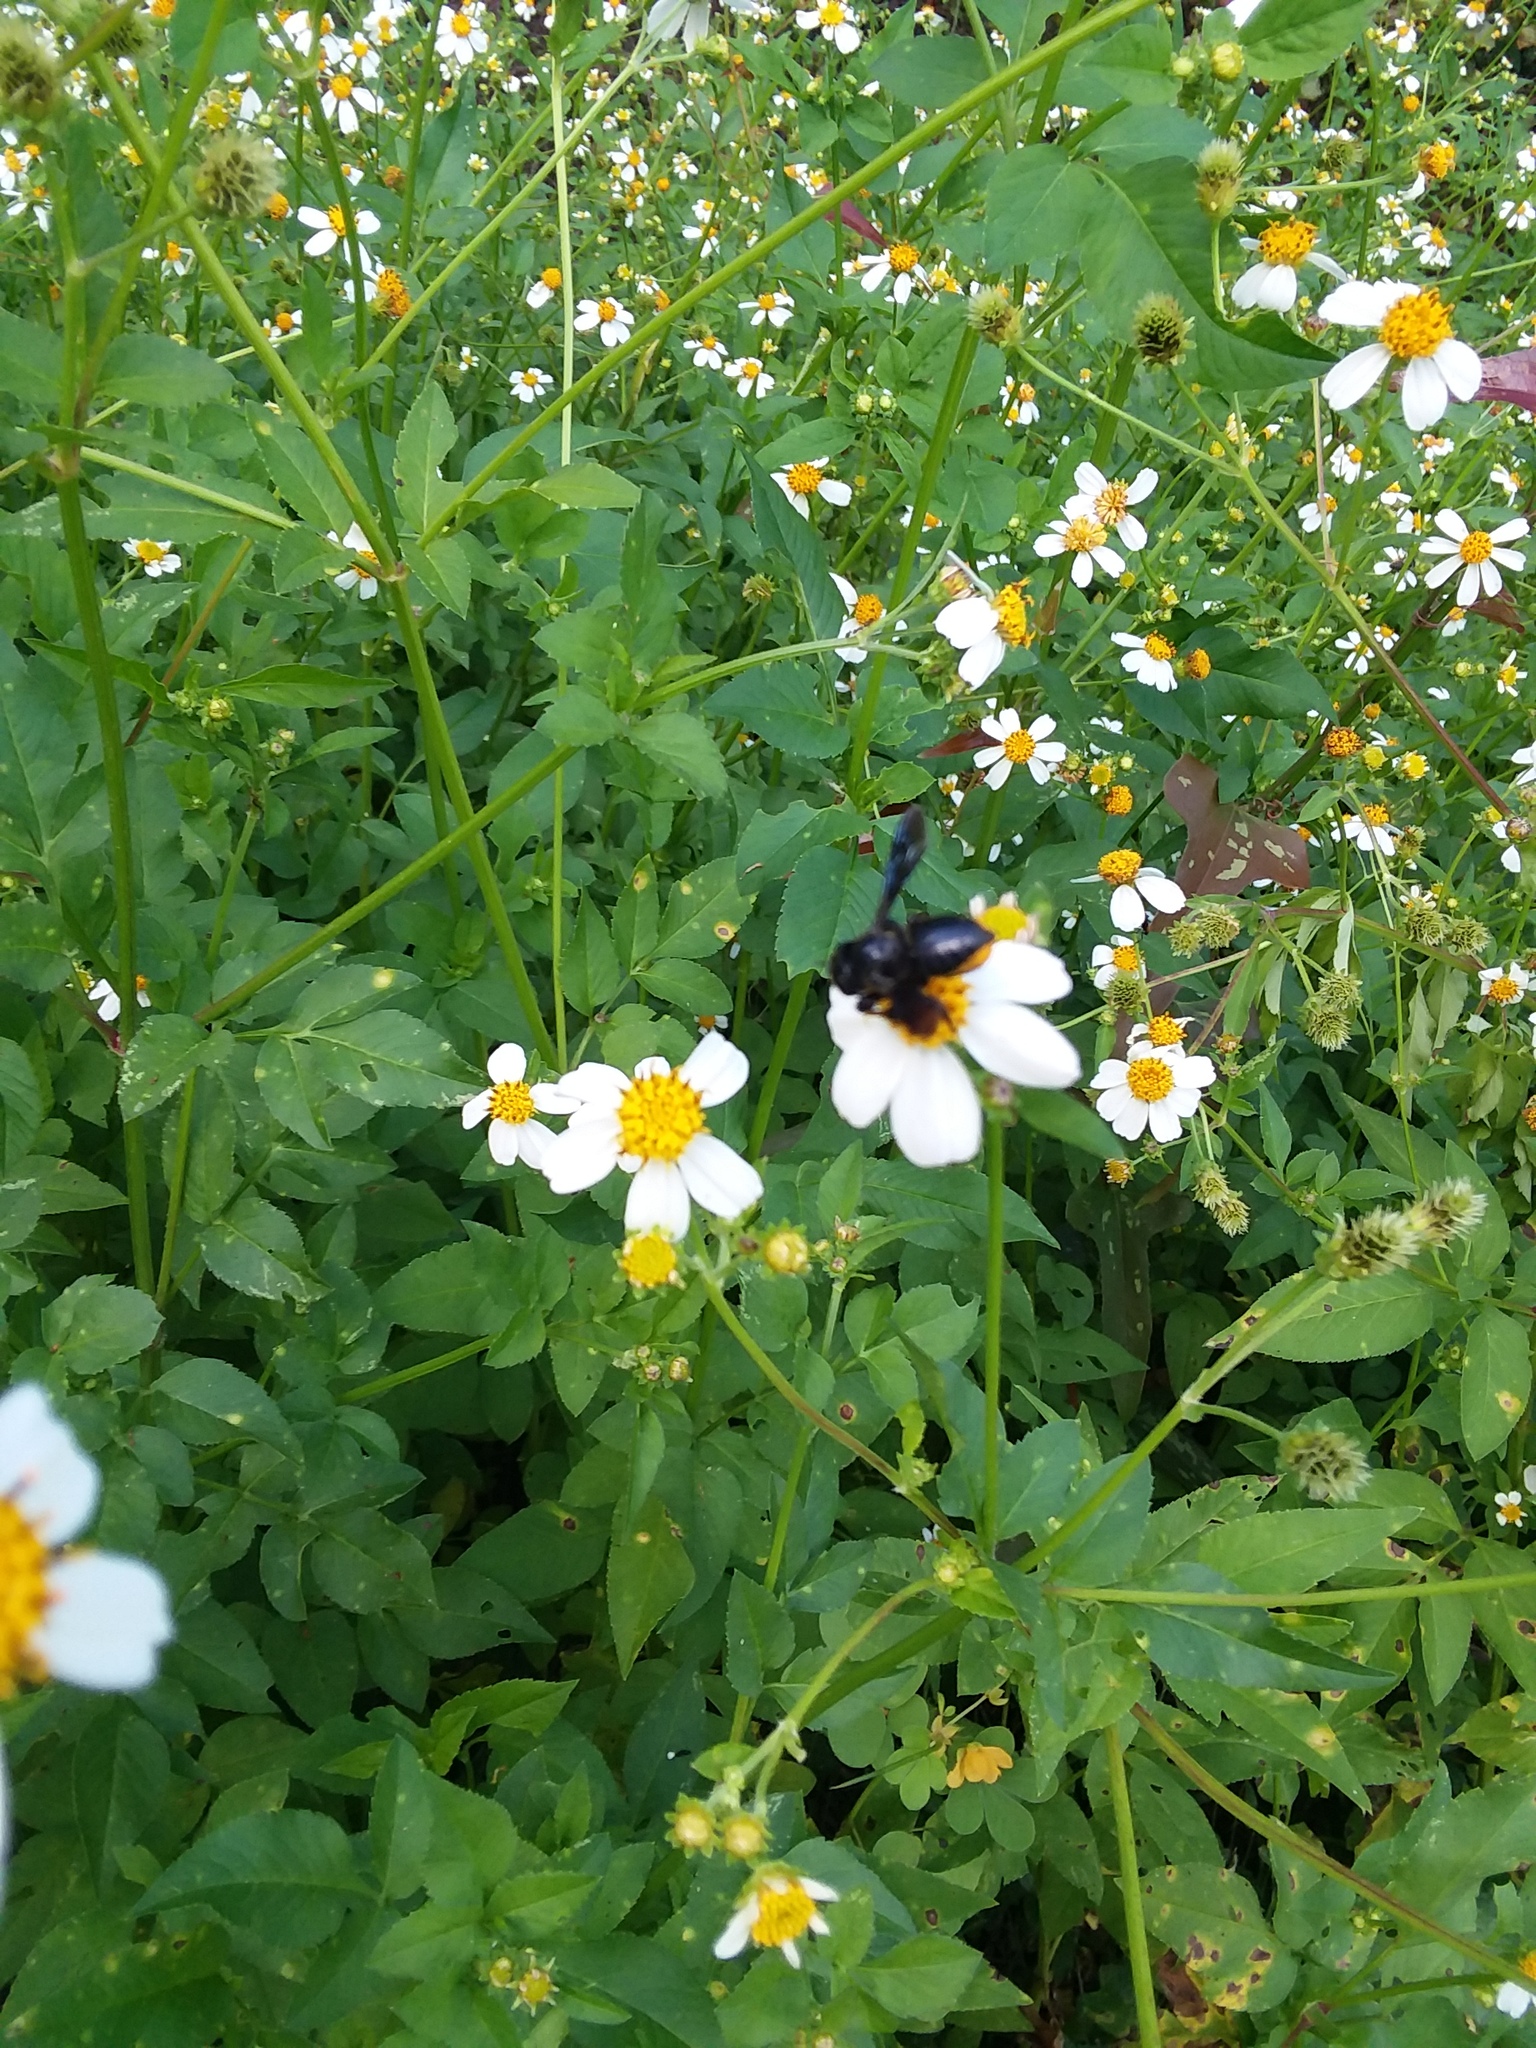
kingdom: Animalia
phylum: Arthropoda
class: Insecta
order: Hymenoptera
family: Megachilidae
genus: Megachile
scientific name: Megachile xylocopoides
